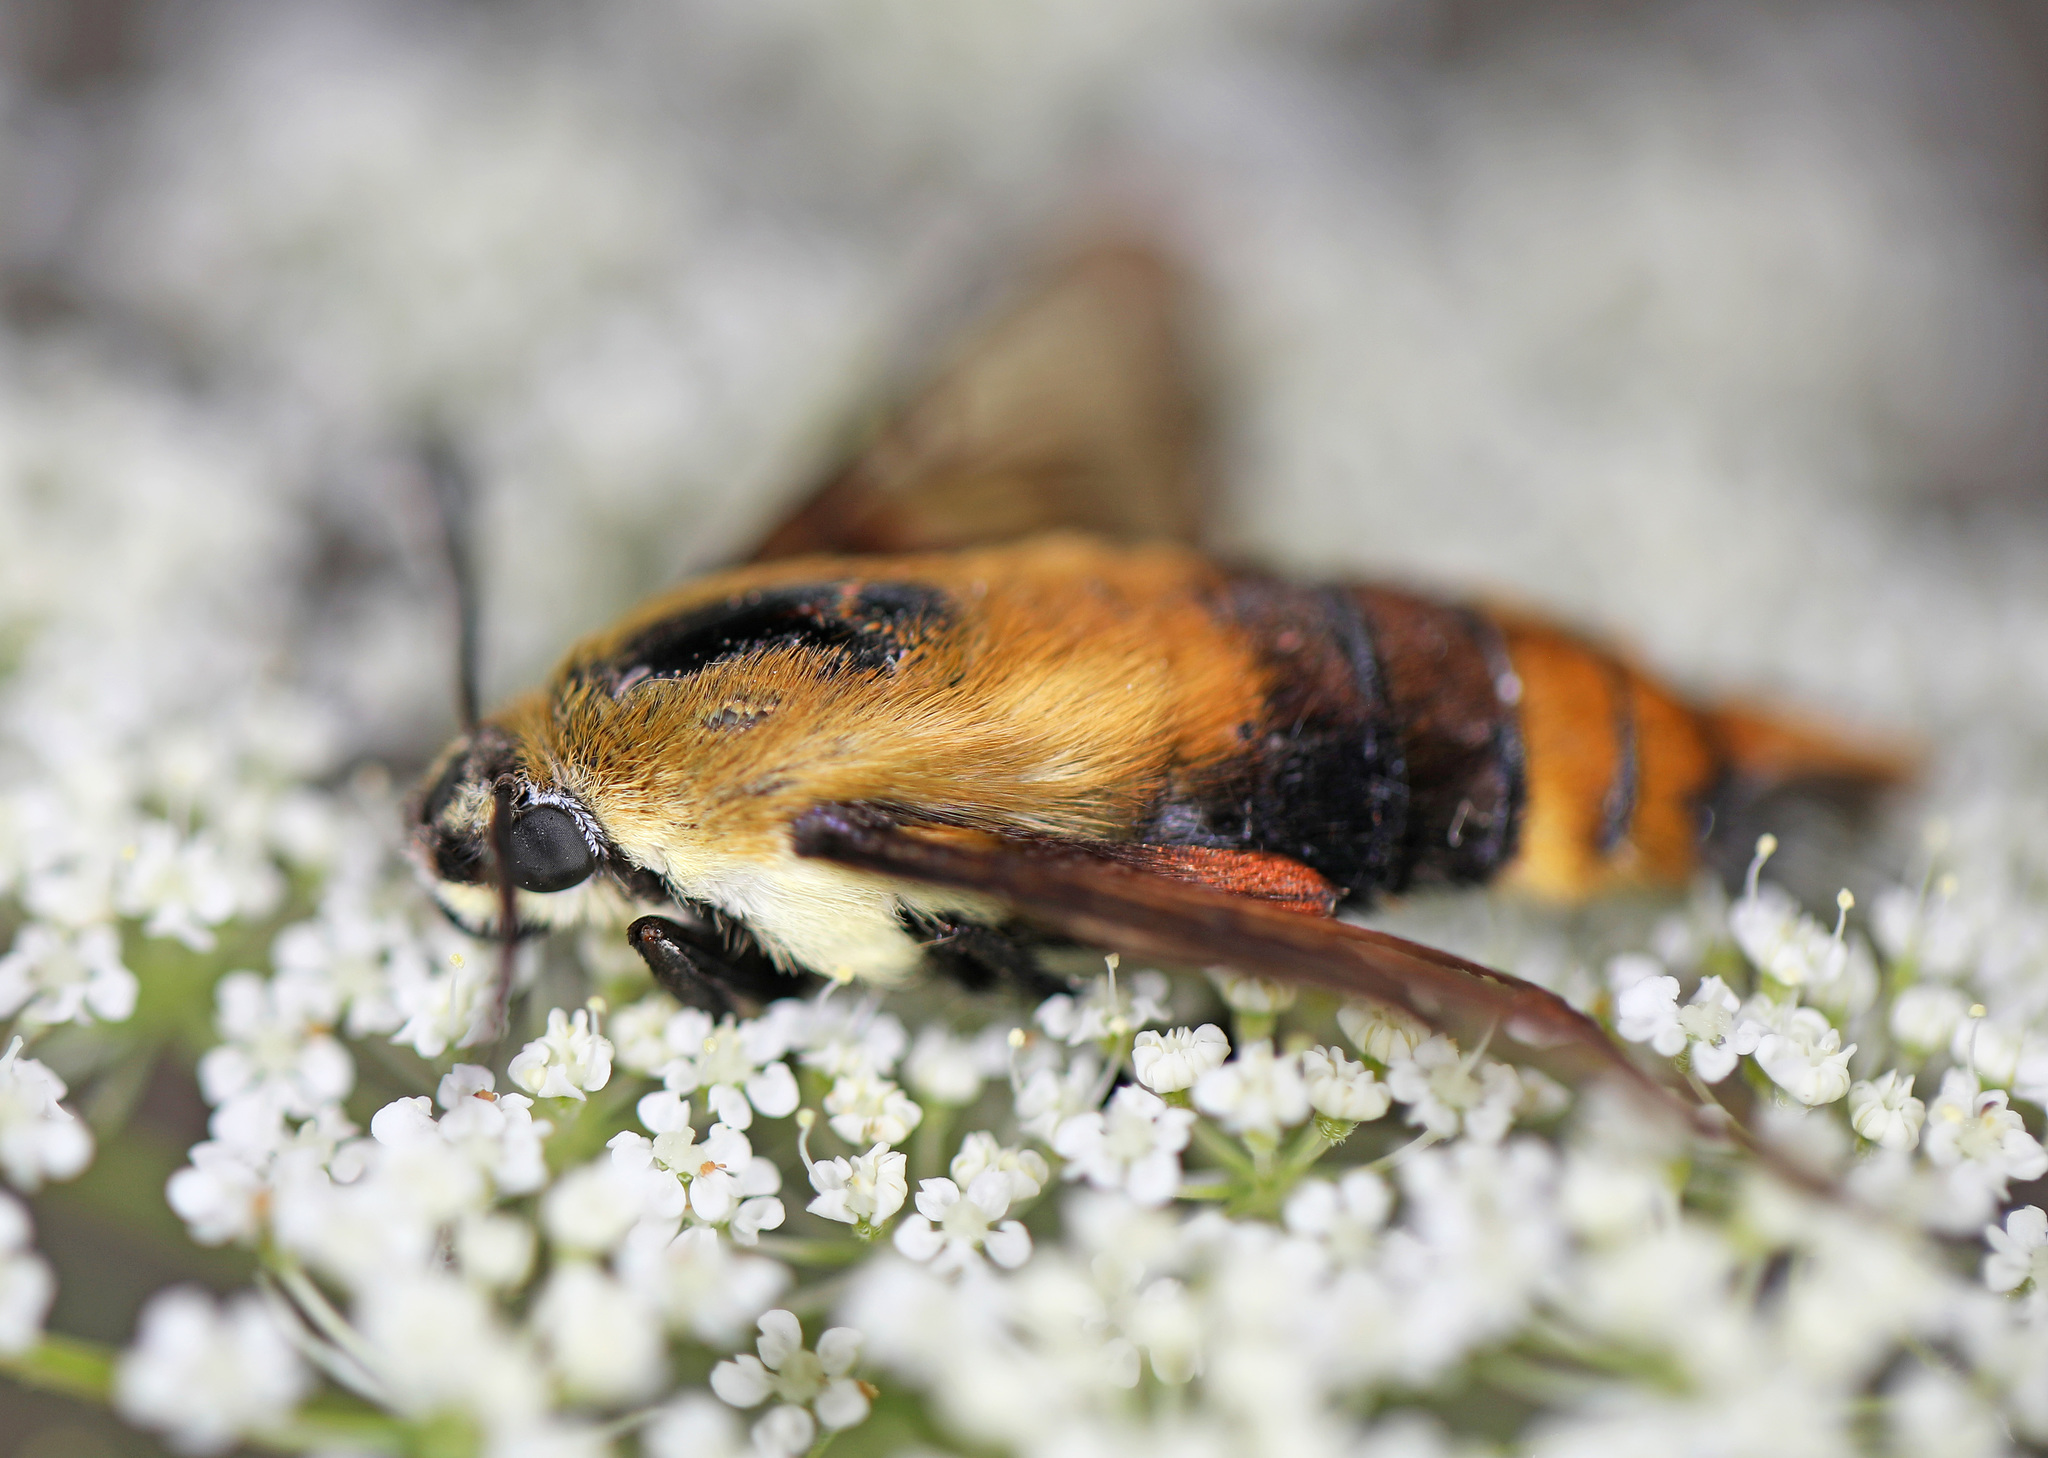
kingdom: Animalia
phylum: Arthropoda
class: Insecta
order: Lepidoptera
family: Sphingidae
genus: Hemaris
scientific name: Hemaris diffinis
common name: Bumblebee moth
